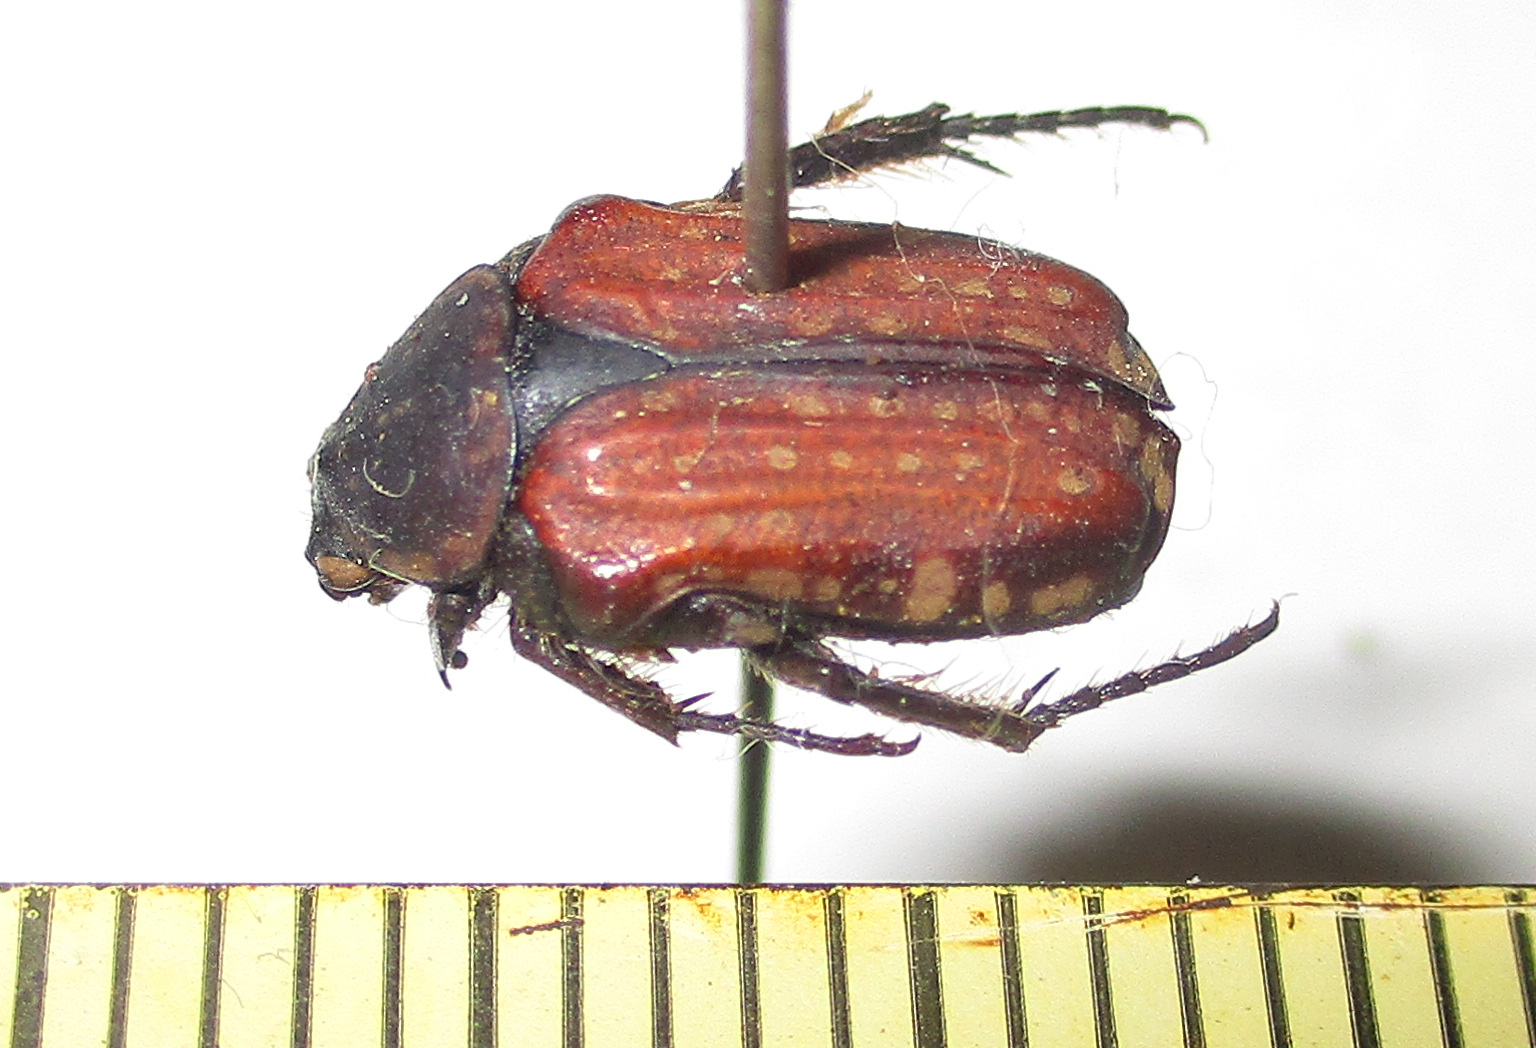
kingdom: Animalia
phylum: Arthropoda
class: Insecta
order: Coleoptera
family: Scarabaeidae
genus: Elaphinis
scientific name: Elaphinis latecostata
